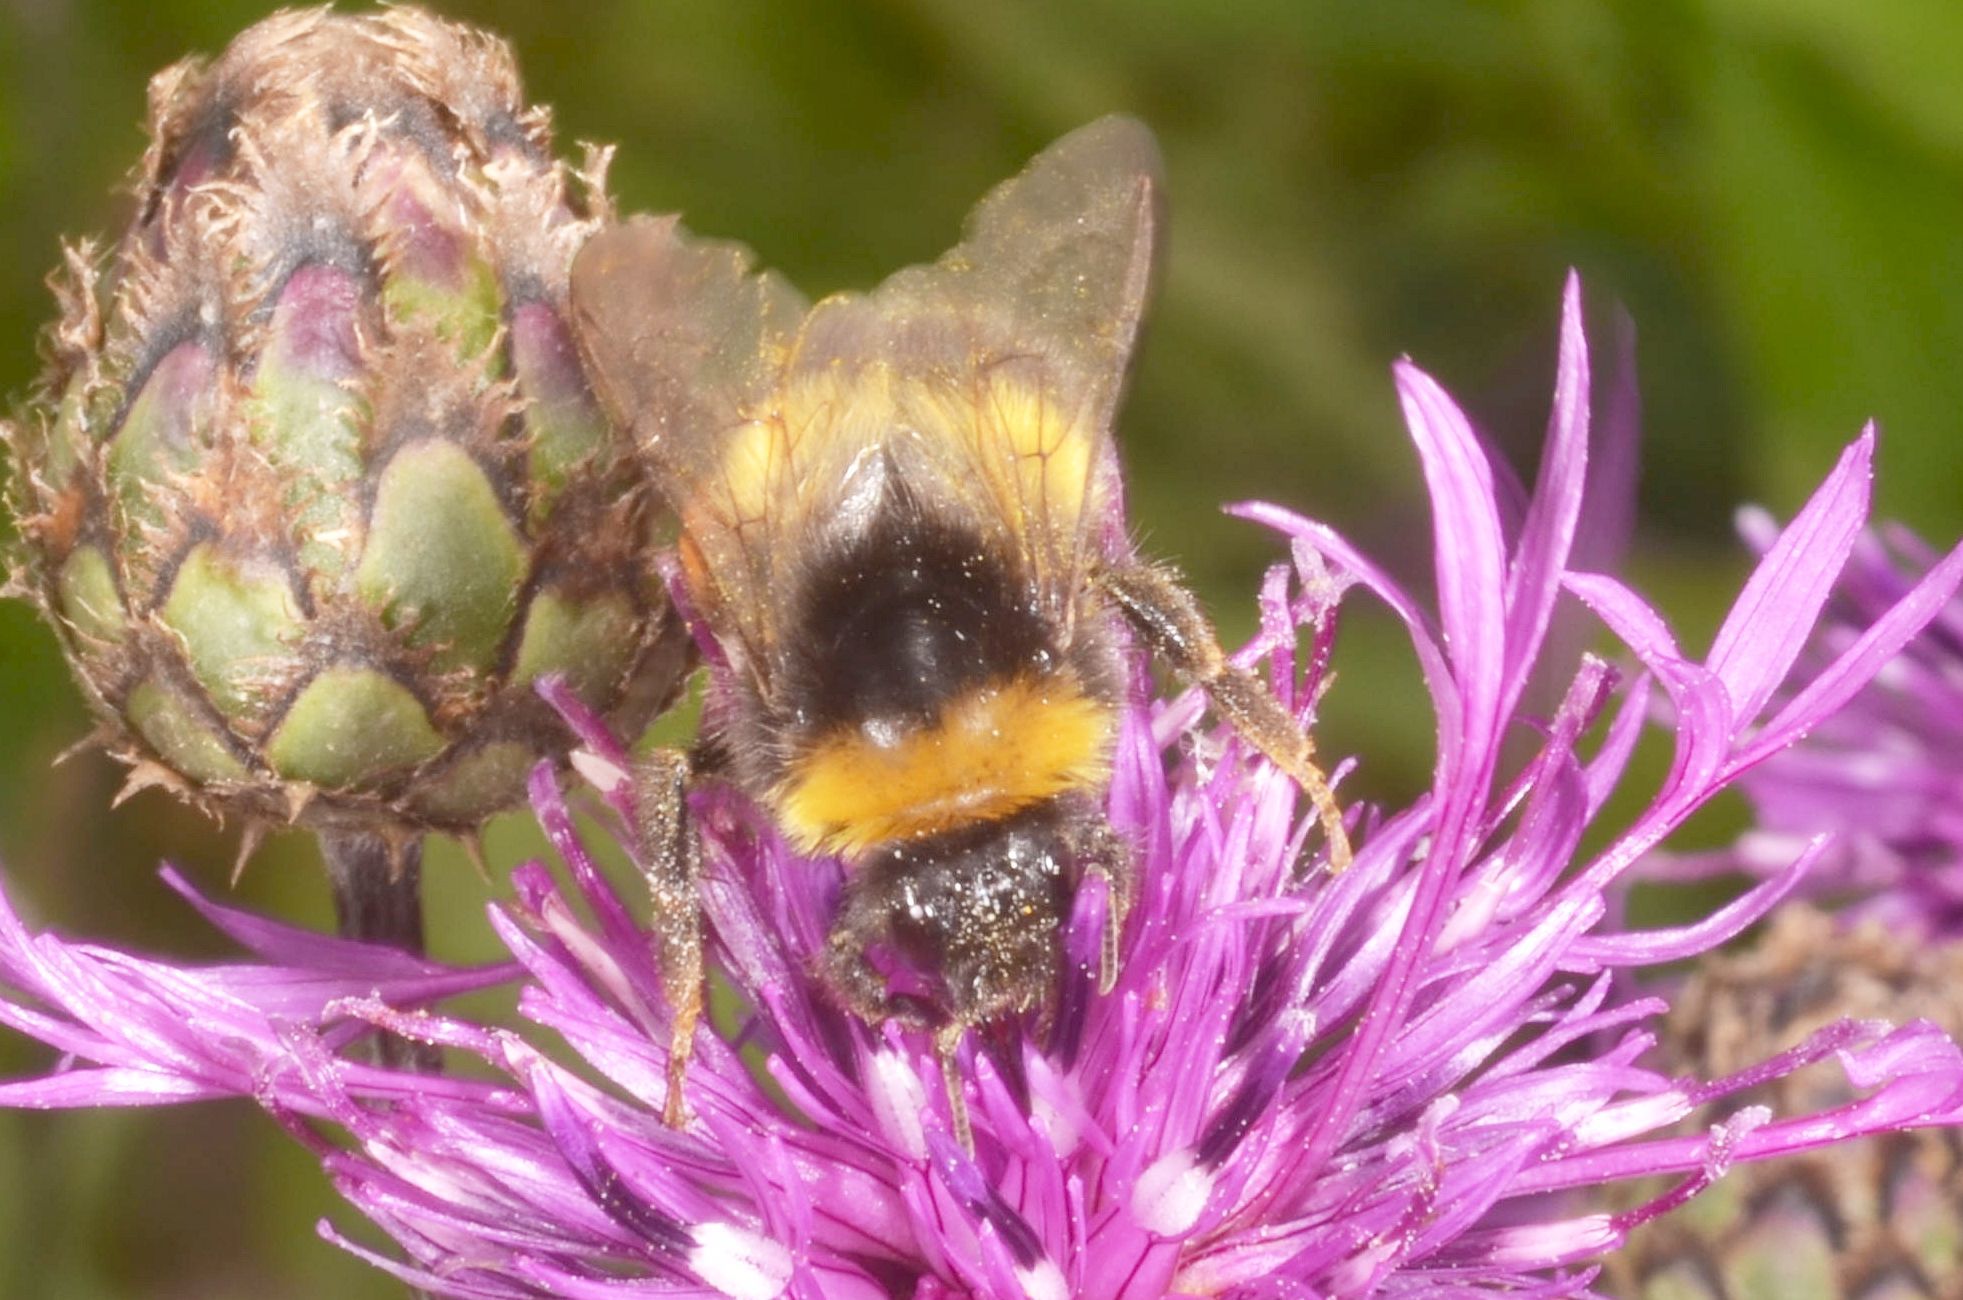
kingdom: Animalia
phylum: Arthropoda
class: Insecta
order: Hymenoptera
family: Apidae
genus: Bombus
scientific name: Bombus
